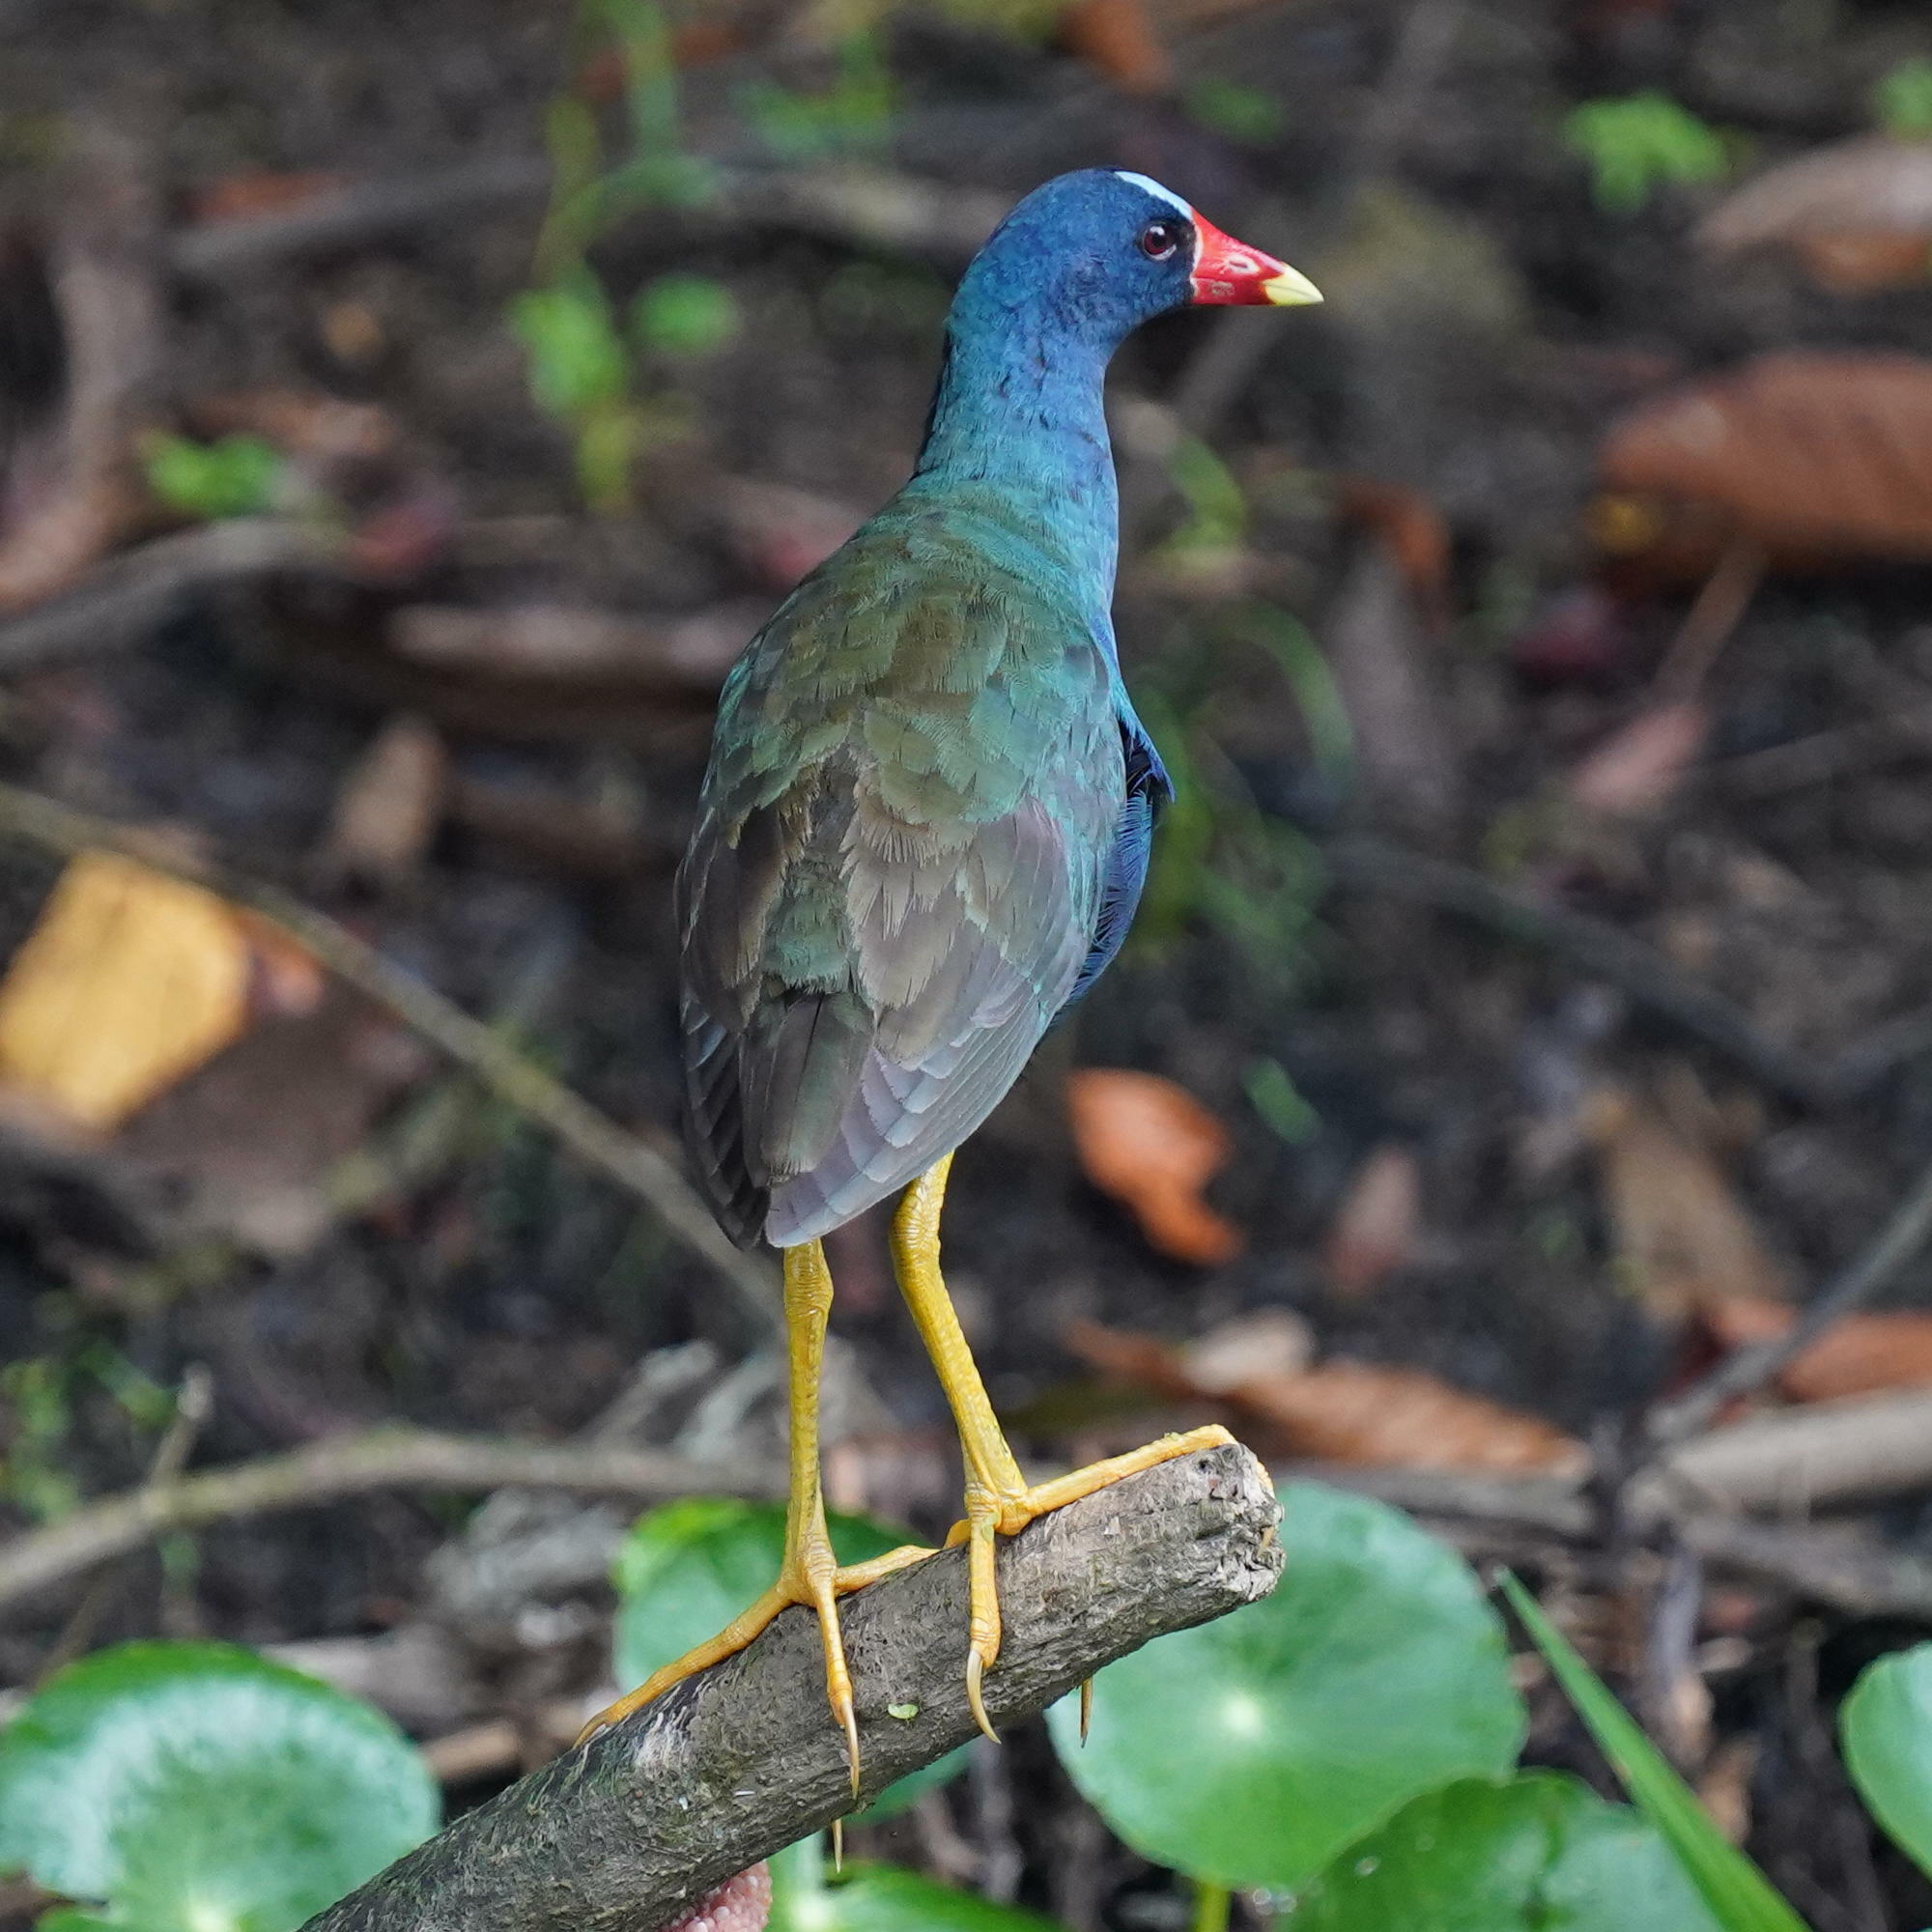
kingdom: Animalia
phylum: Chordata
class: Aves
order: Gruiformes
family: Rallidae
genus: Porphyrio
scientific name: Porphyrio martinica
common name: Purple gallinule
